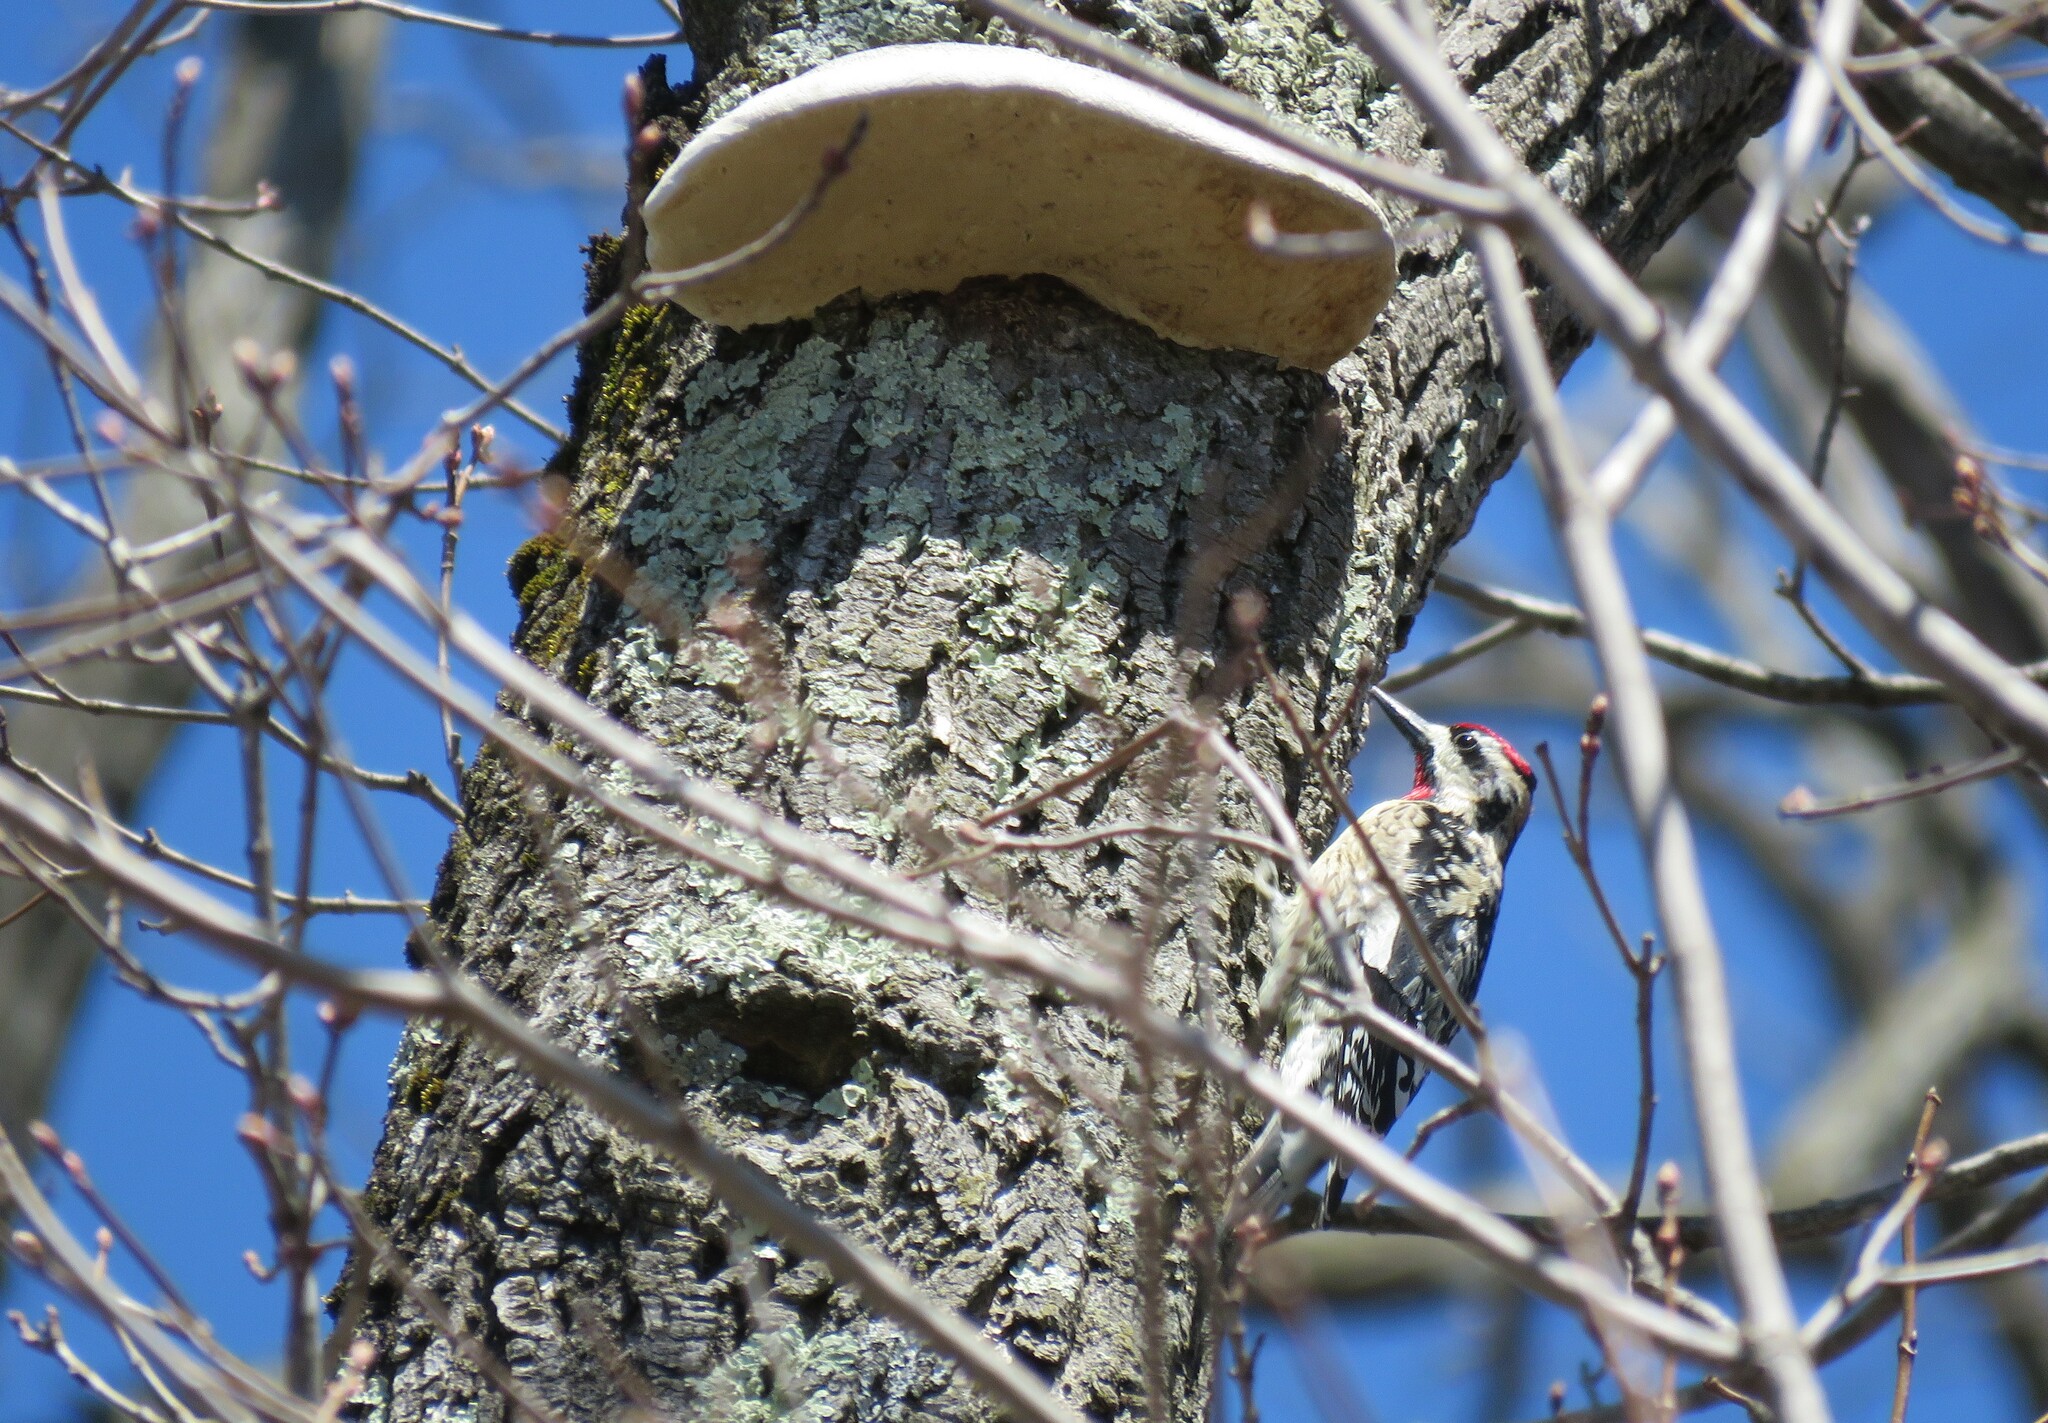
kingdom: Animalia
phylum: Chordata
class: Aves
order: Piciformes
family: Picidae
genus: Sphyrapicus
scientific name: Sphyrapicus varius
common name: Yellow-bellied sapsucker
